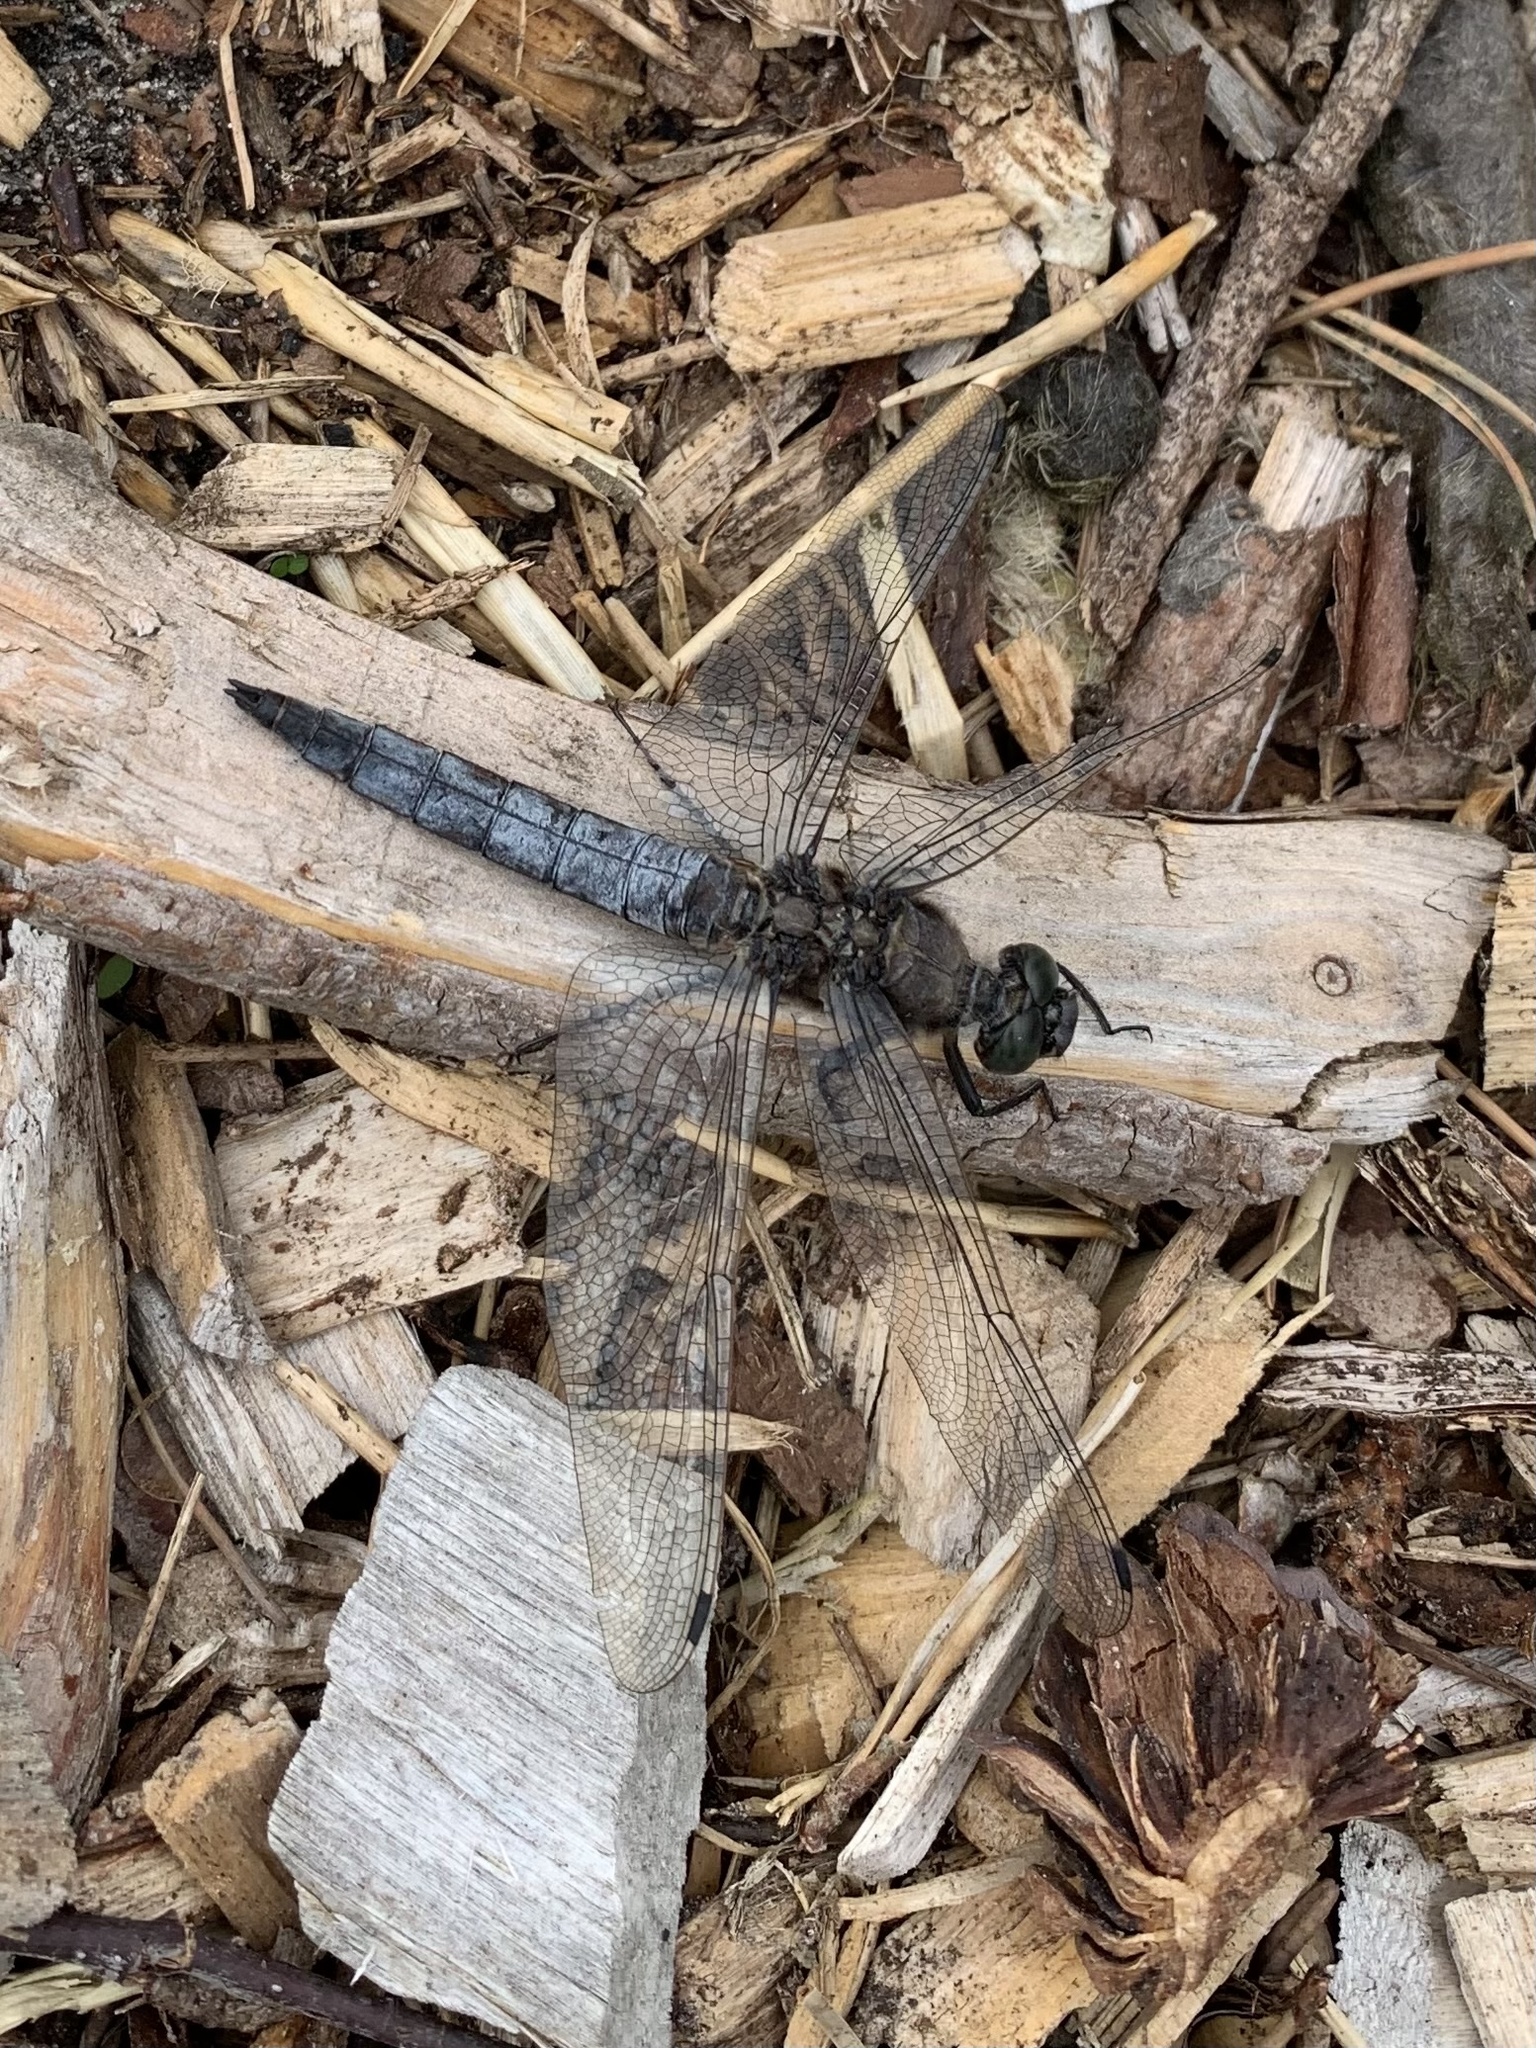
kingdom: Animalia
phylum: Arthropoda
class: Insecta
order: Odonata
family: Libellulidae
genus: Orthetrum
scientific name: Orthetrum cancellatum
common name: Black-tailed skimmer
